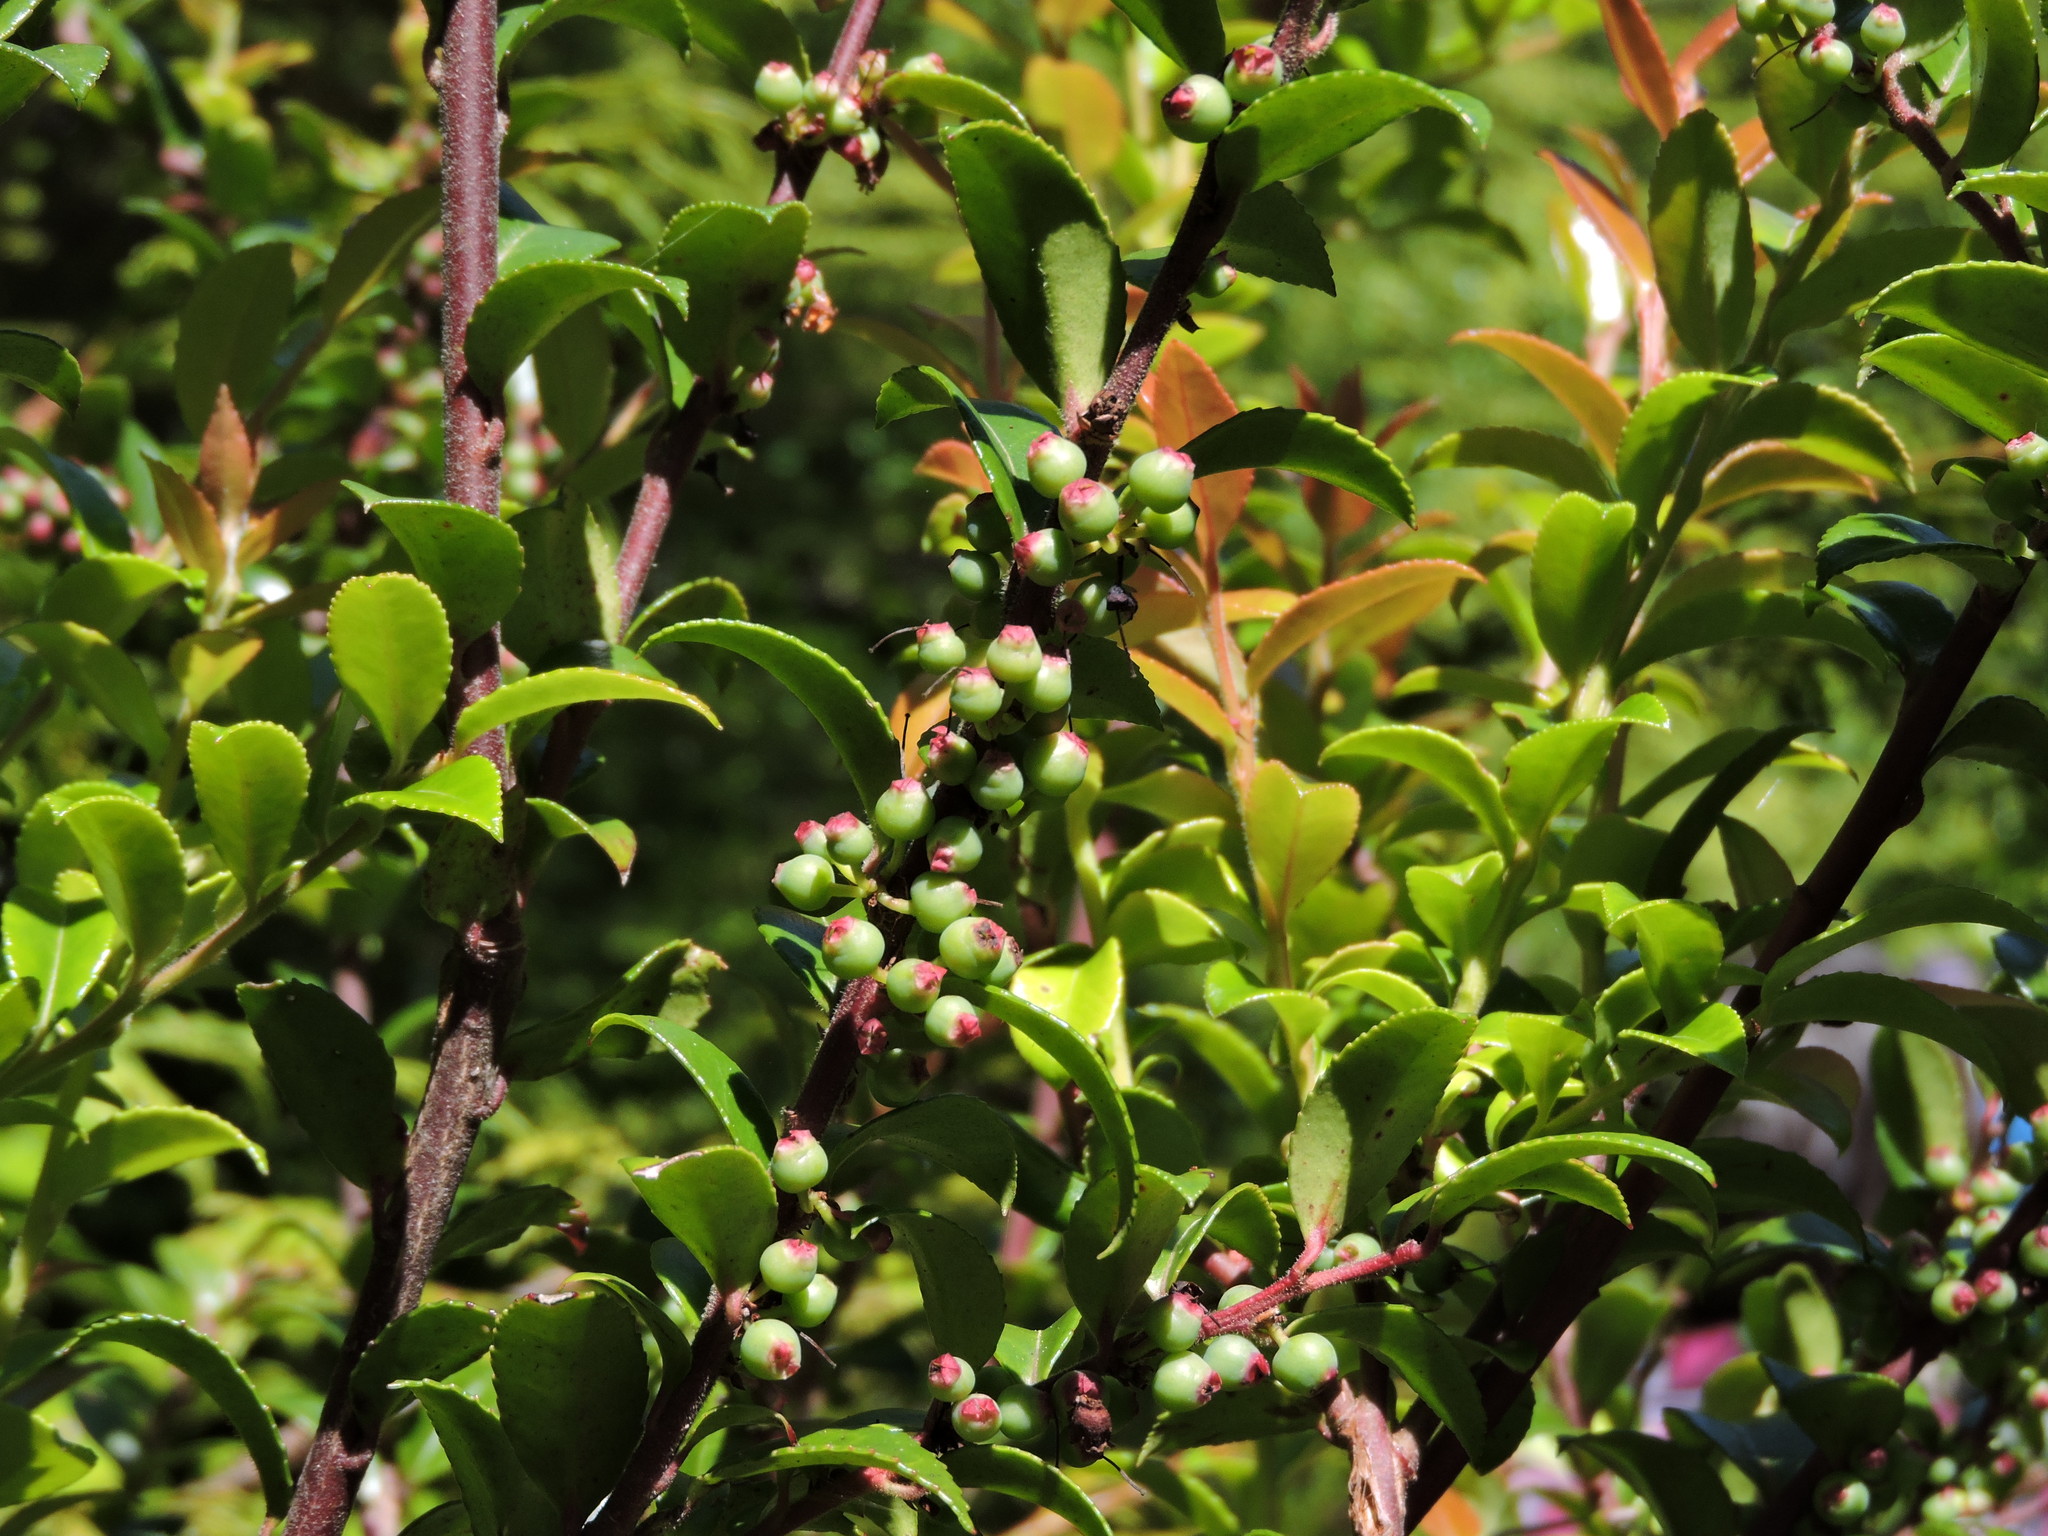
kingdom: Plantae
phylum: Tracheophyta
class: Magnoliopsida
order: Ericales
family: Ericaceae
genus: Vaccinium
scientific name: Vaccinium ovatum
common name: California-huckleberry
